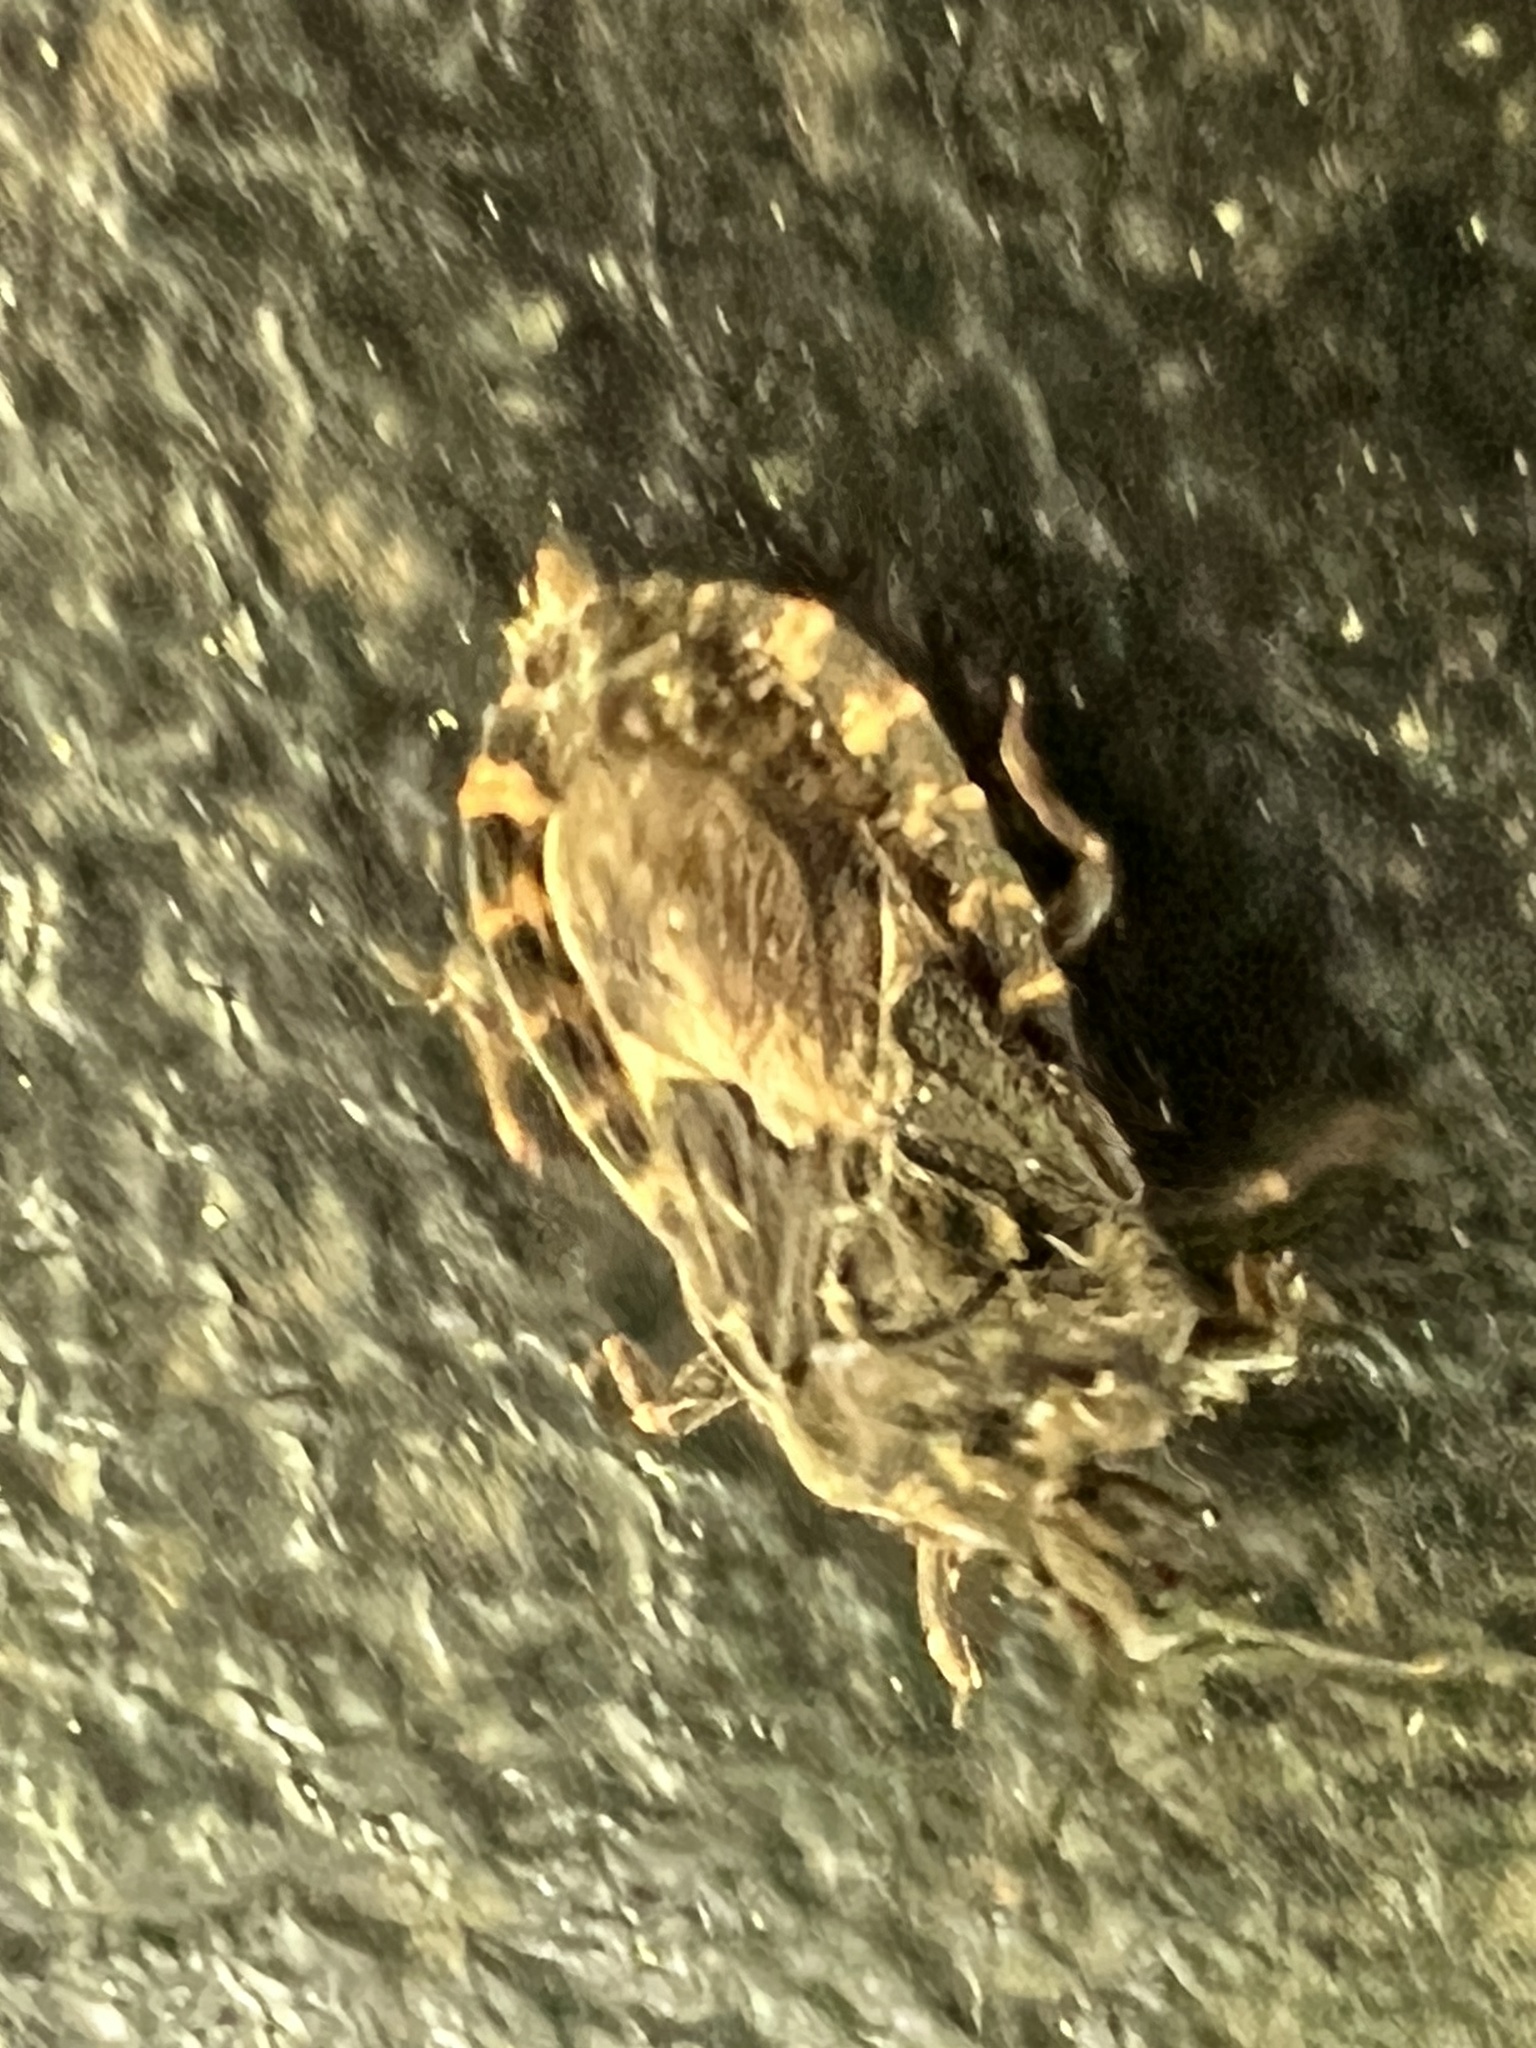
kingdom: Animalia
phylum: Arthropoda
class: Insecta
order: Hemiptera
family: Aradidae
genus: Mezira
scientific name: Mezira
